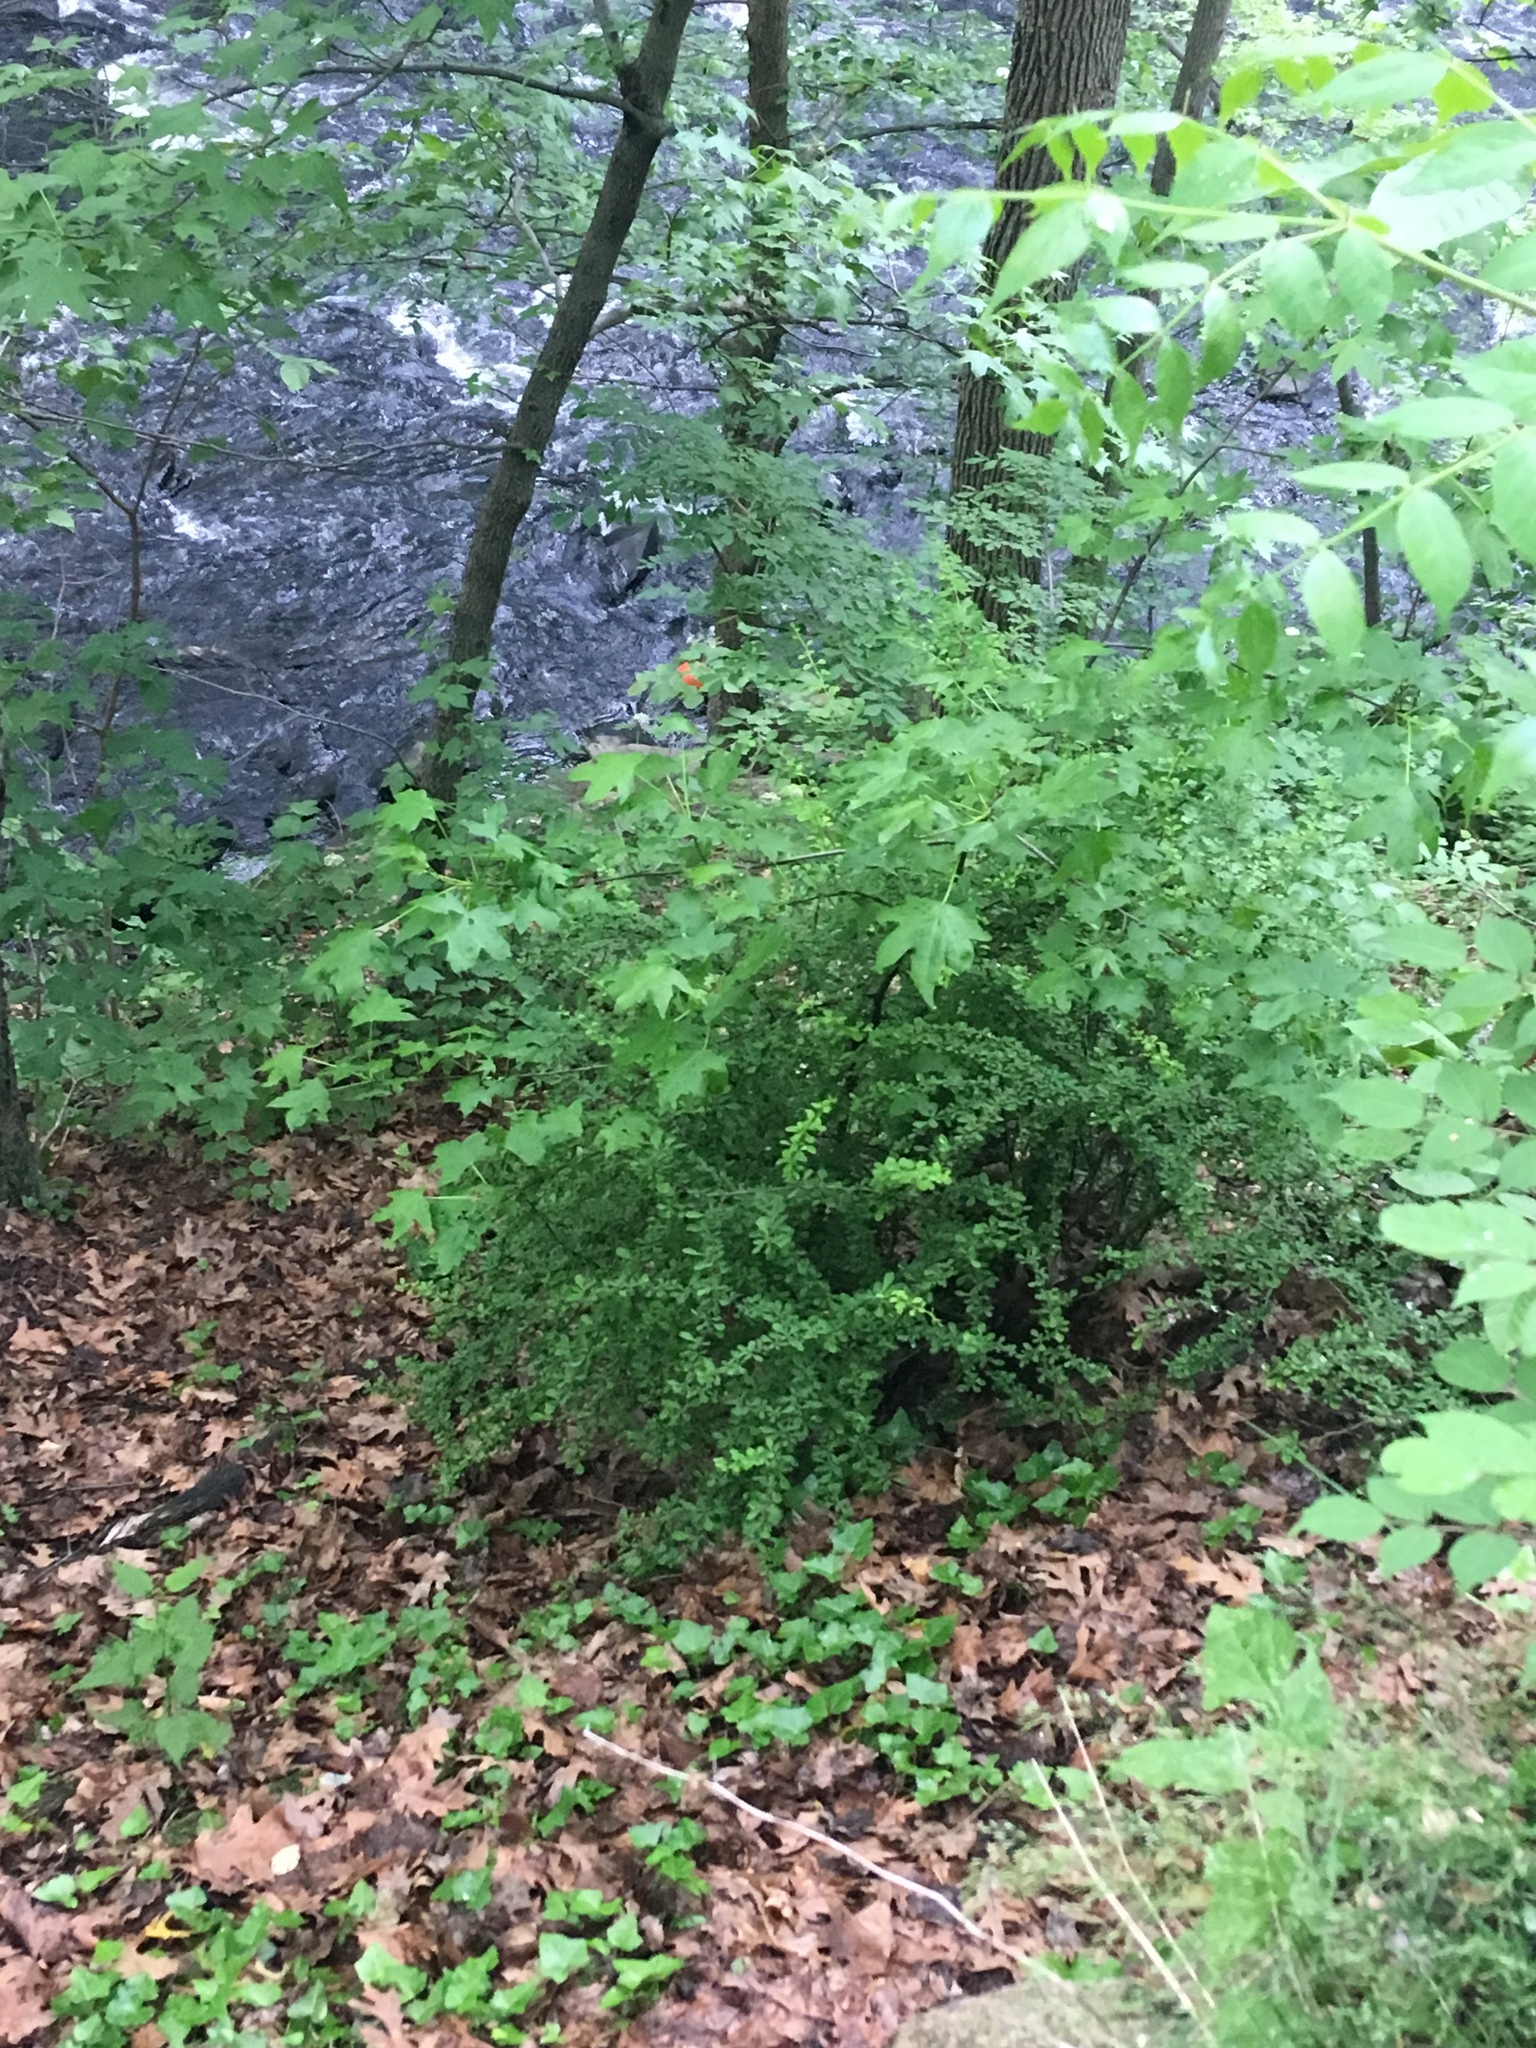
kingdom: Plantae
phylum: Tracheophyta
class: Magnoliopsida
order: Ranunculales
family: Berberidaceae
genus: Berberis
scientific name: Berberis thunbergii
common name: Japanese barberry
